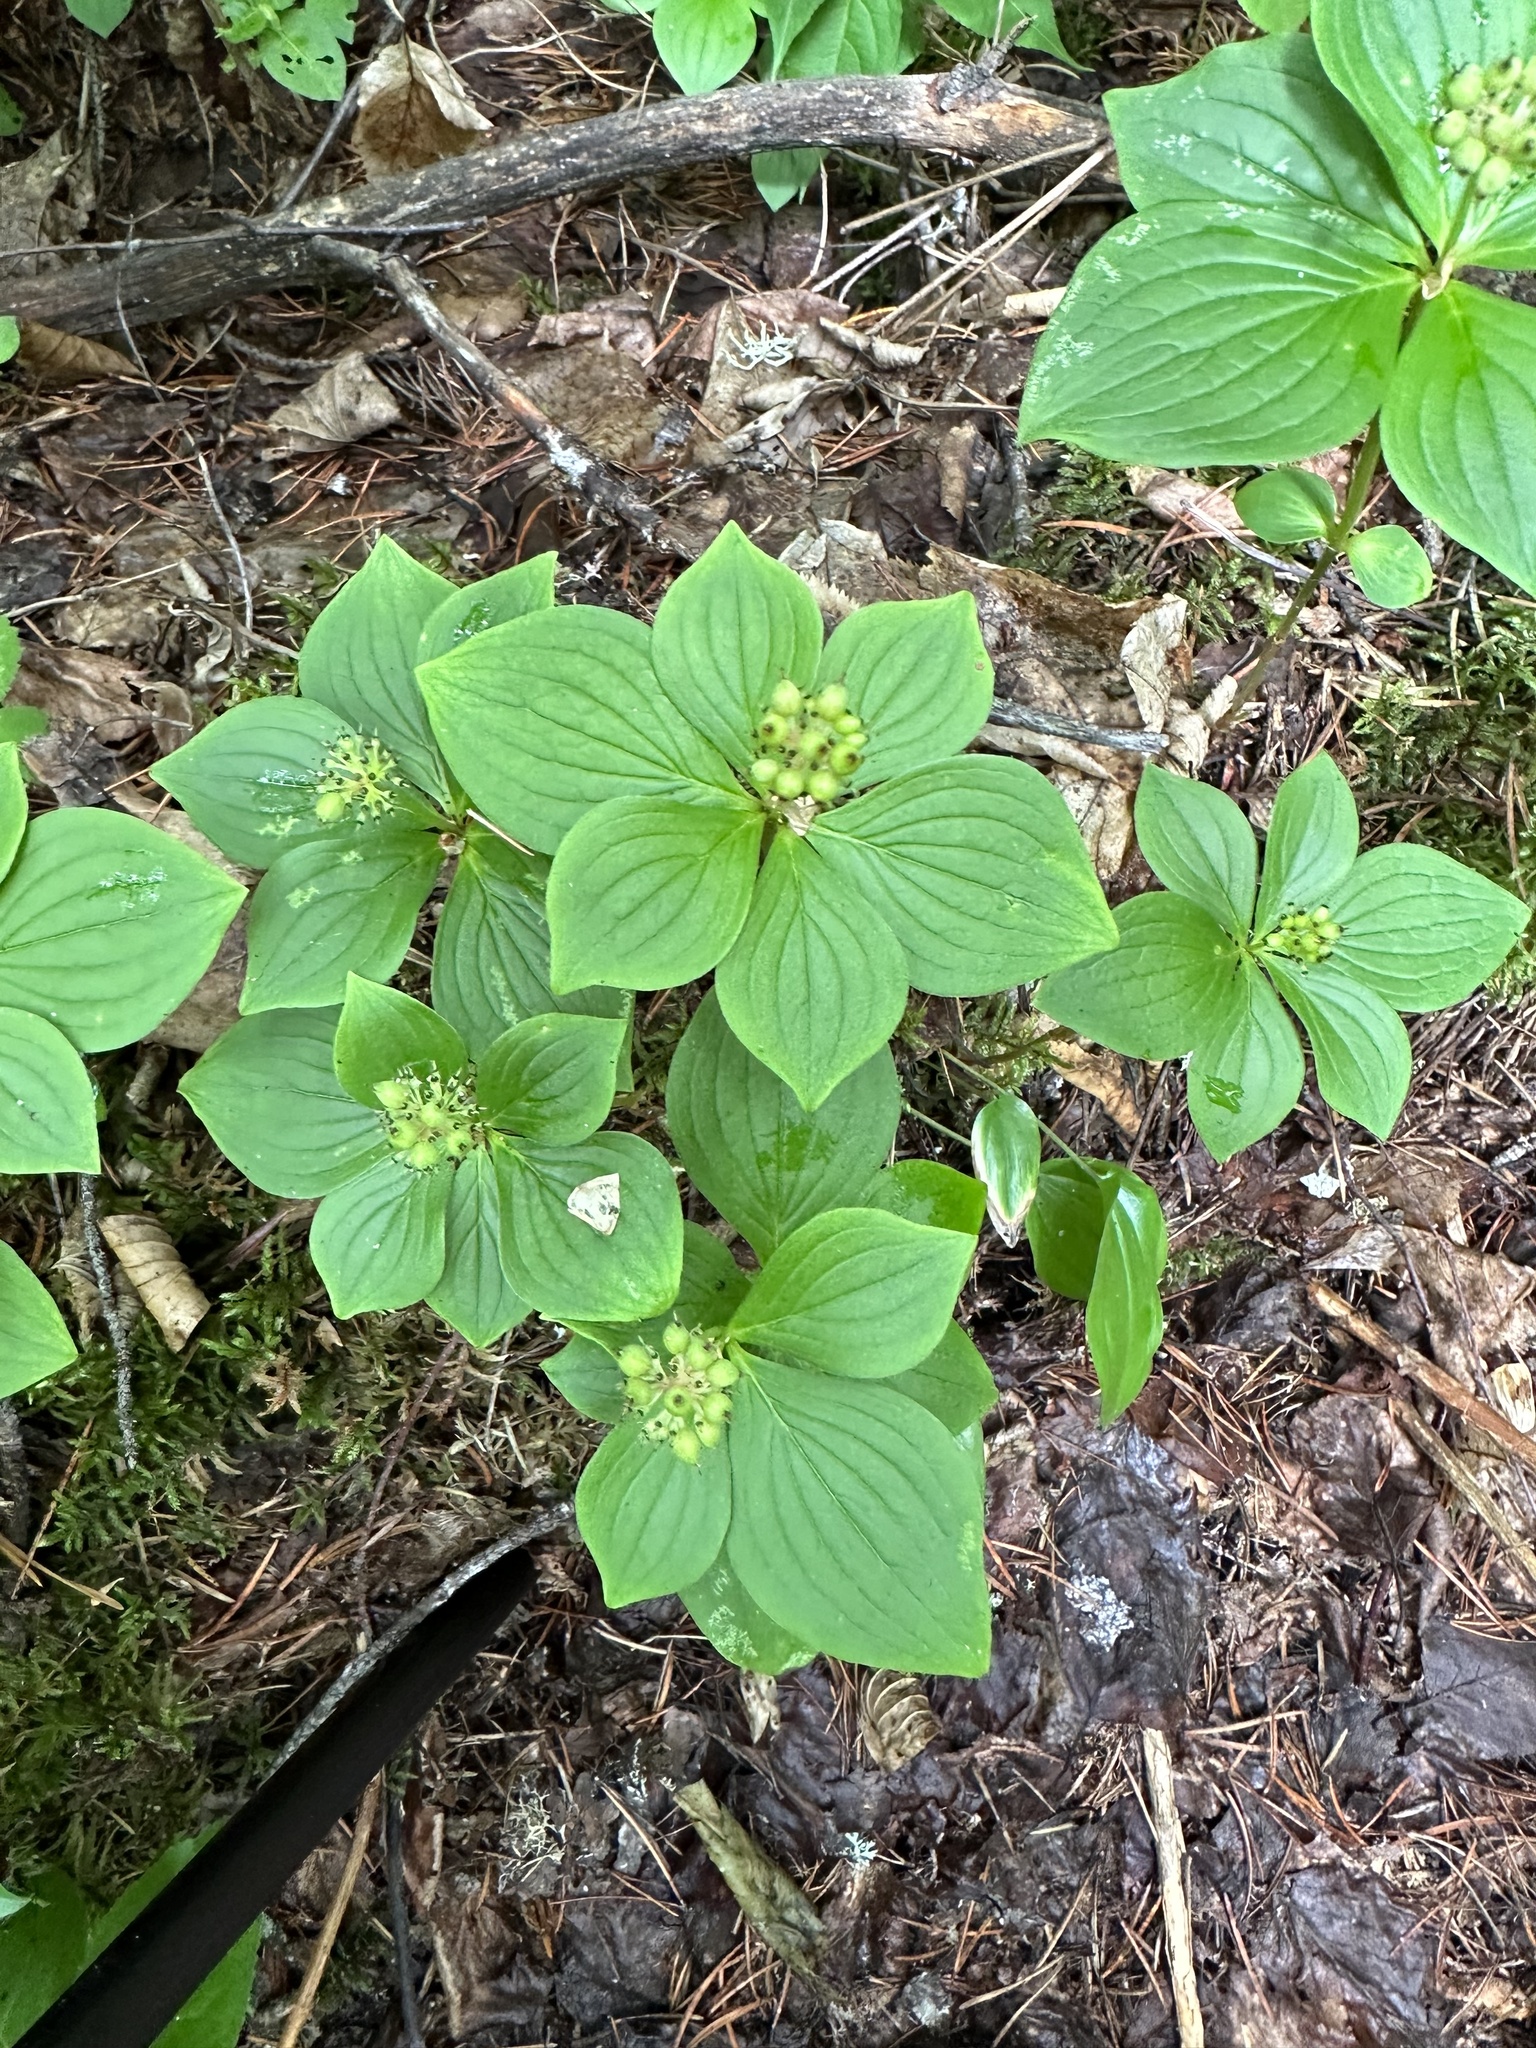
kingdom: Plantae
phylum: Tracheophyta
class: Magnoliopsida
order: Cornales
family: Cornaceae
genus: Cornus
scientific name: Cornus canadensis
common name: Creeping dogwood
